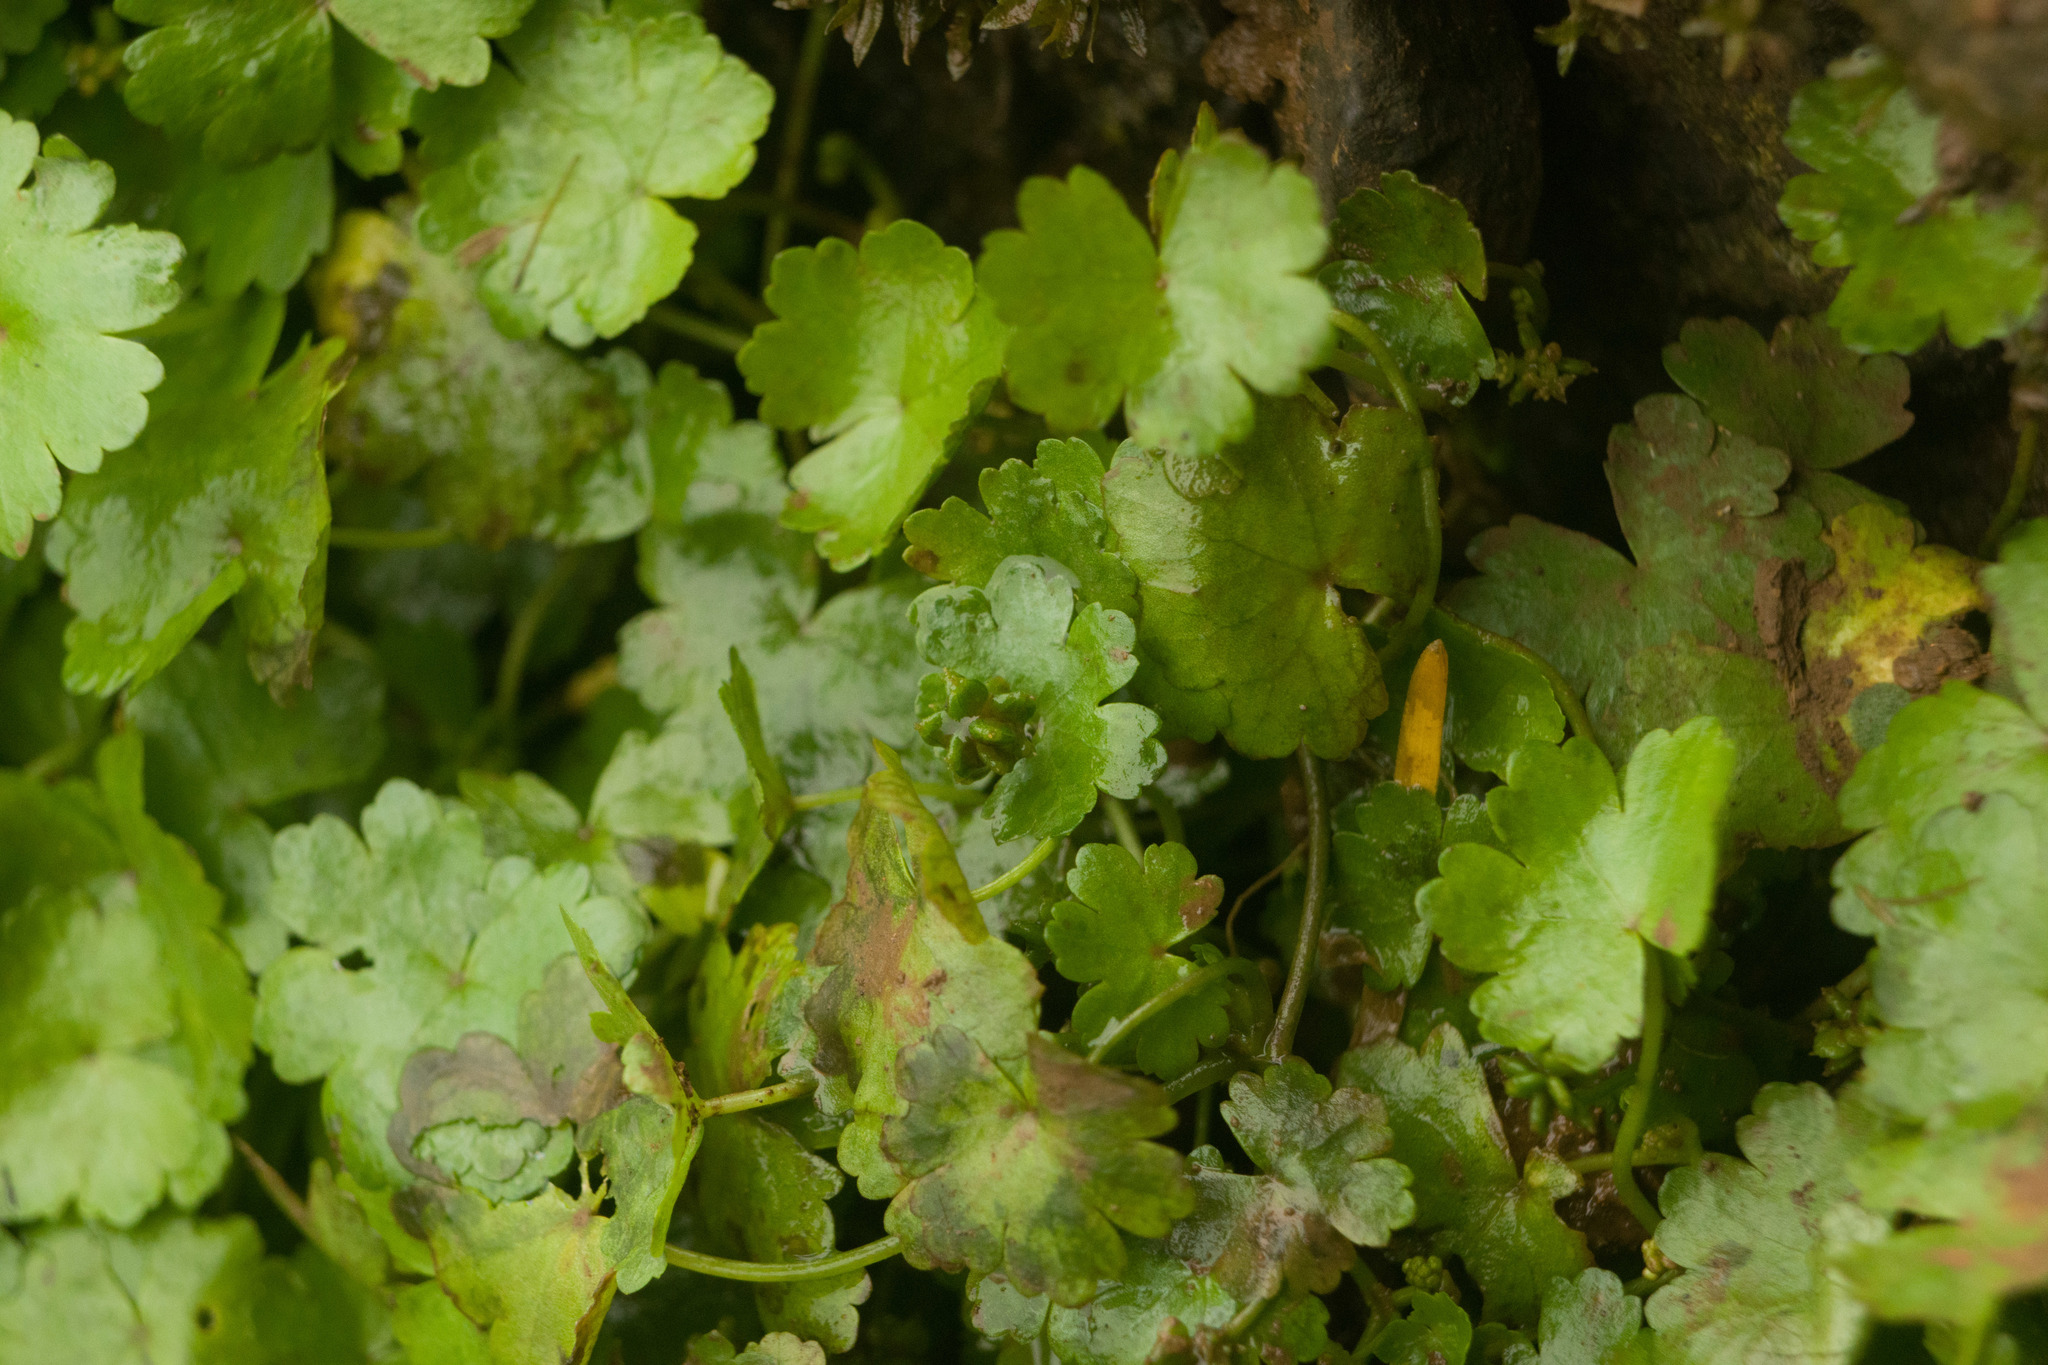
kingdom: Plantae
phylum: Tracheophyta
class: Magnoliopsida
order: Apiales
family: Araliaceae
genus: Hydrocotyle
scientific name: Hydrocotyle sibthorpioides
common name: Lawn marshpennywort
